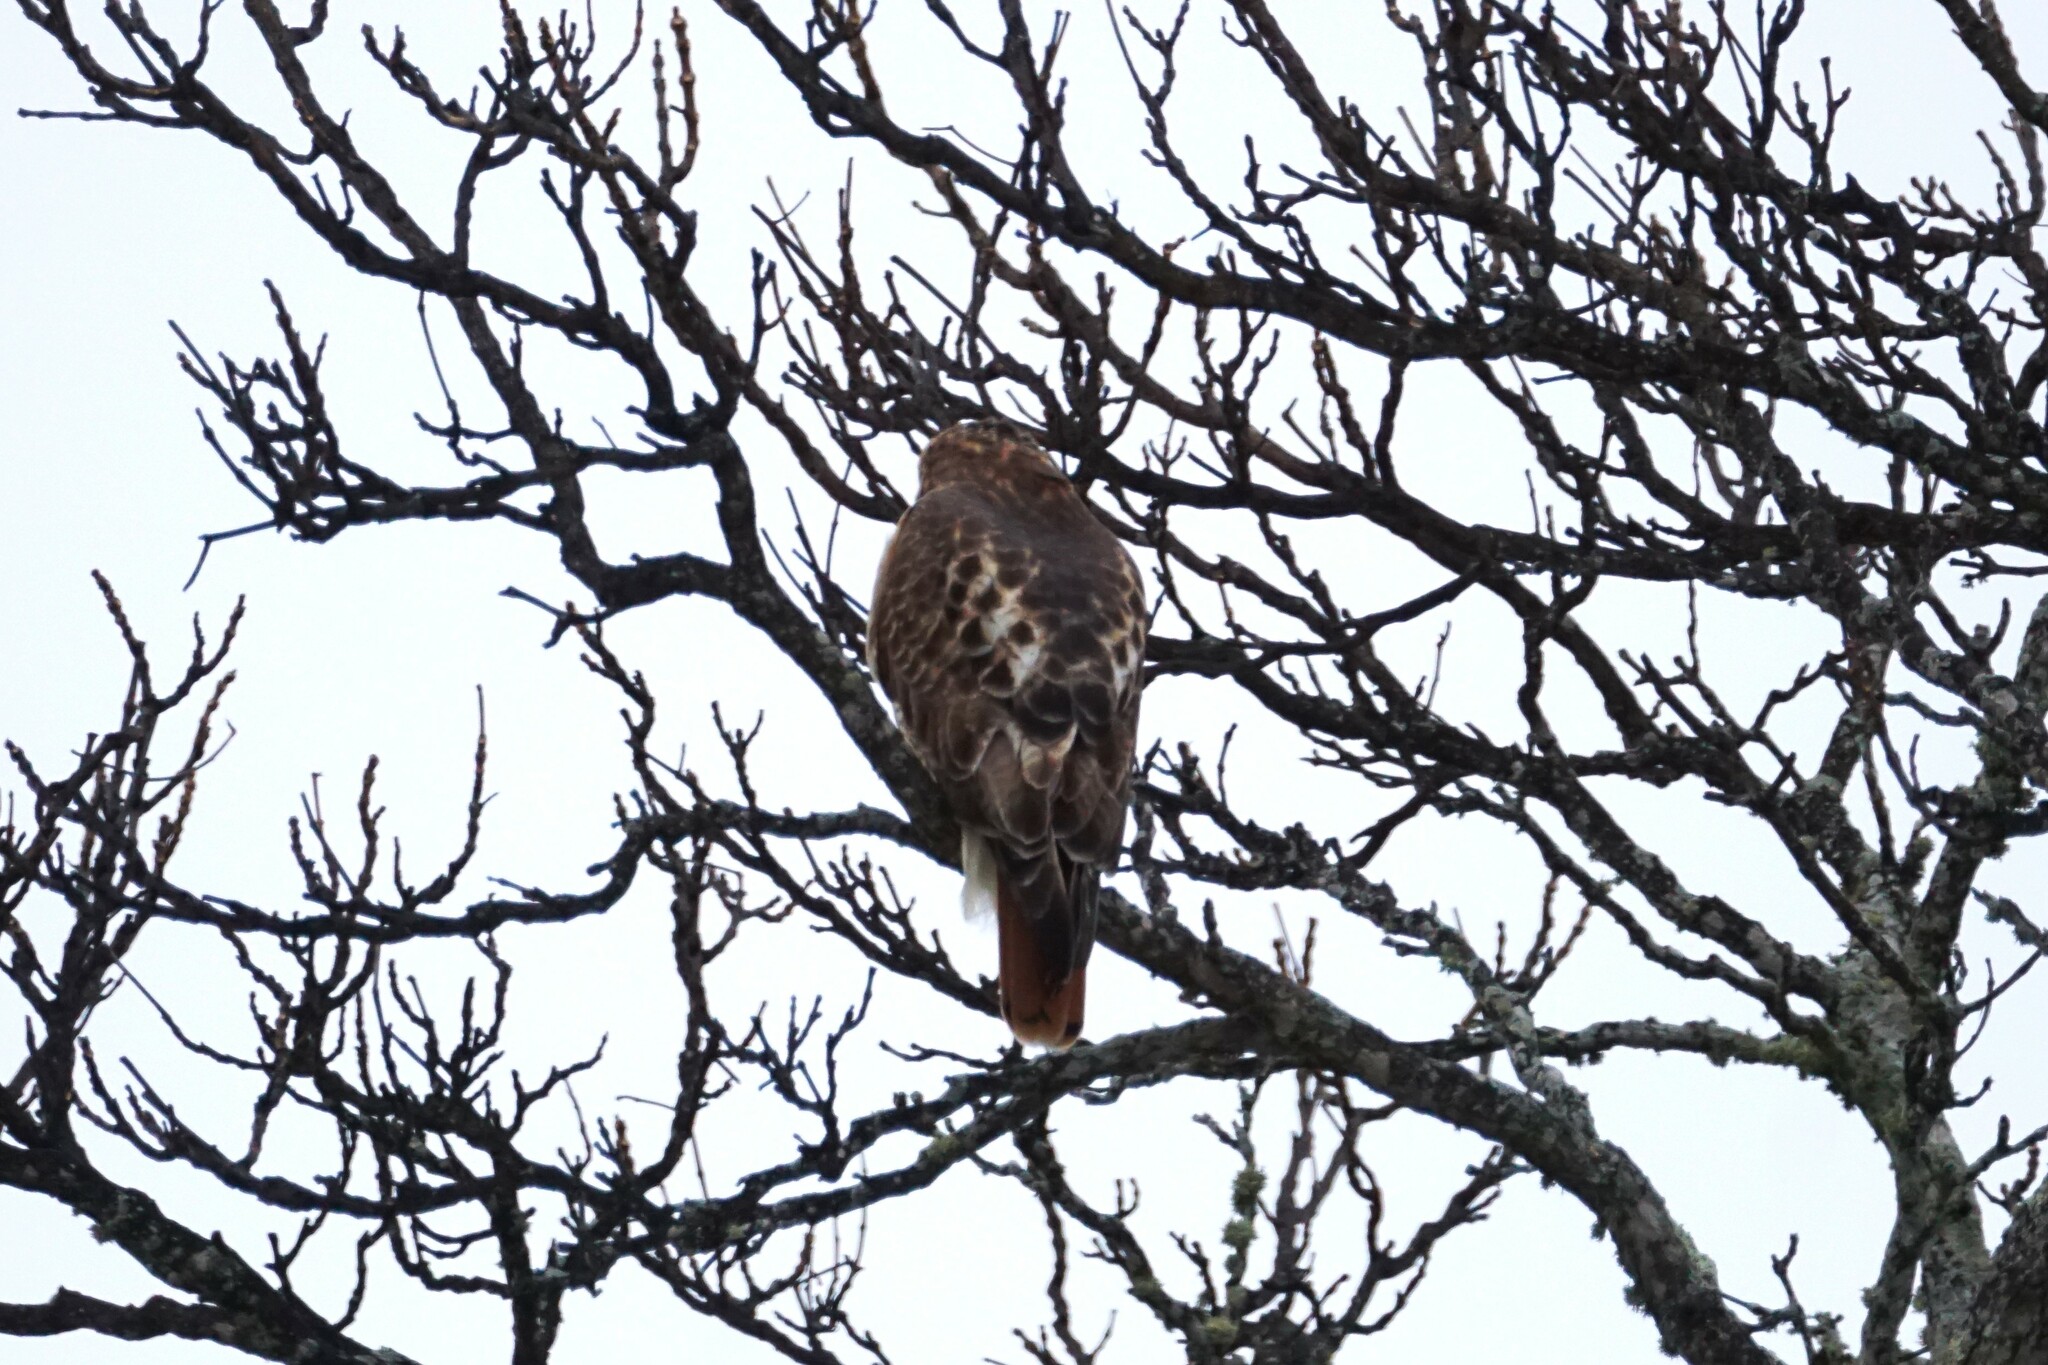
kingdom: Animalia
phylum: Chordata
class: Aves
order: Accipitriformes
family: Accipitridae
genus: Buteo
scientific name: Buteo jamaicensis
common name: Red-tailed hawk
